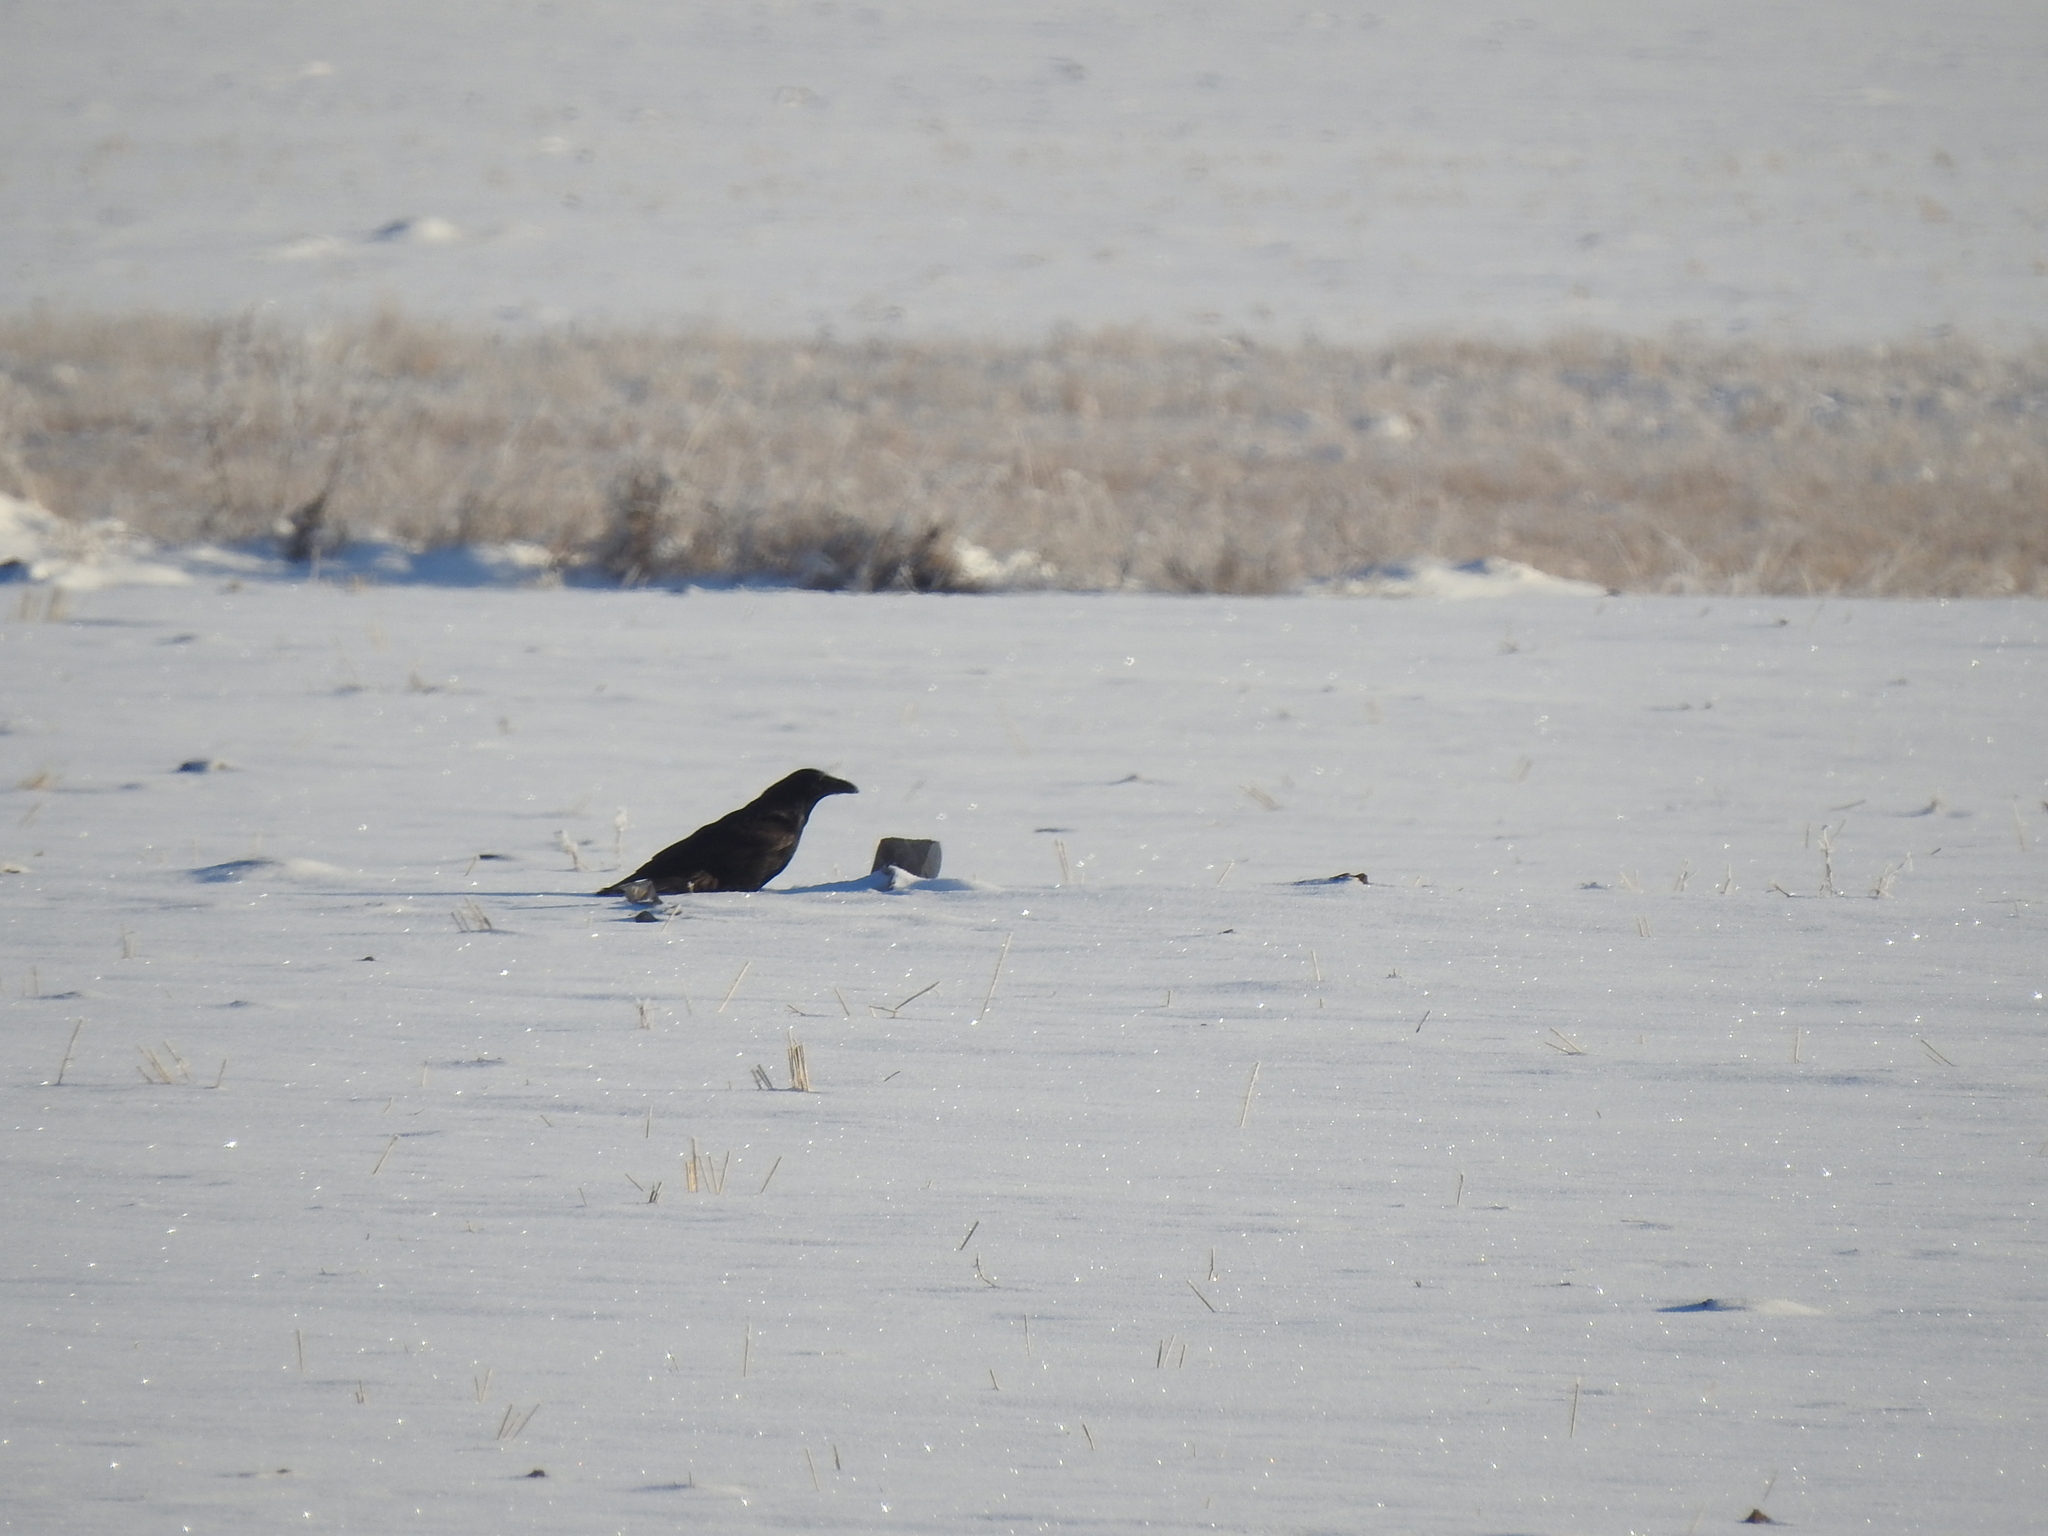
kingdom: Animalia
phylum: Chordata
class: Aves
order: Passeriformes
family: Corvidae
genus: Corvus
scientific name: Corvus corax
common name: Common raven
